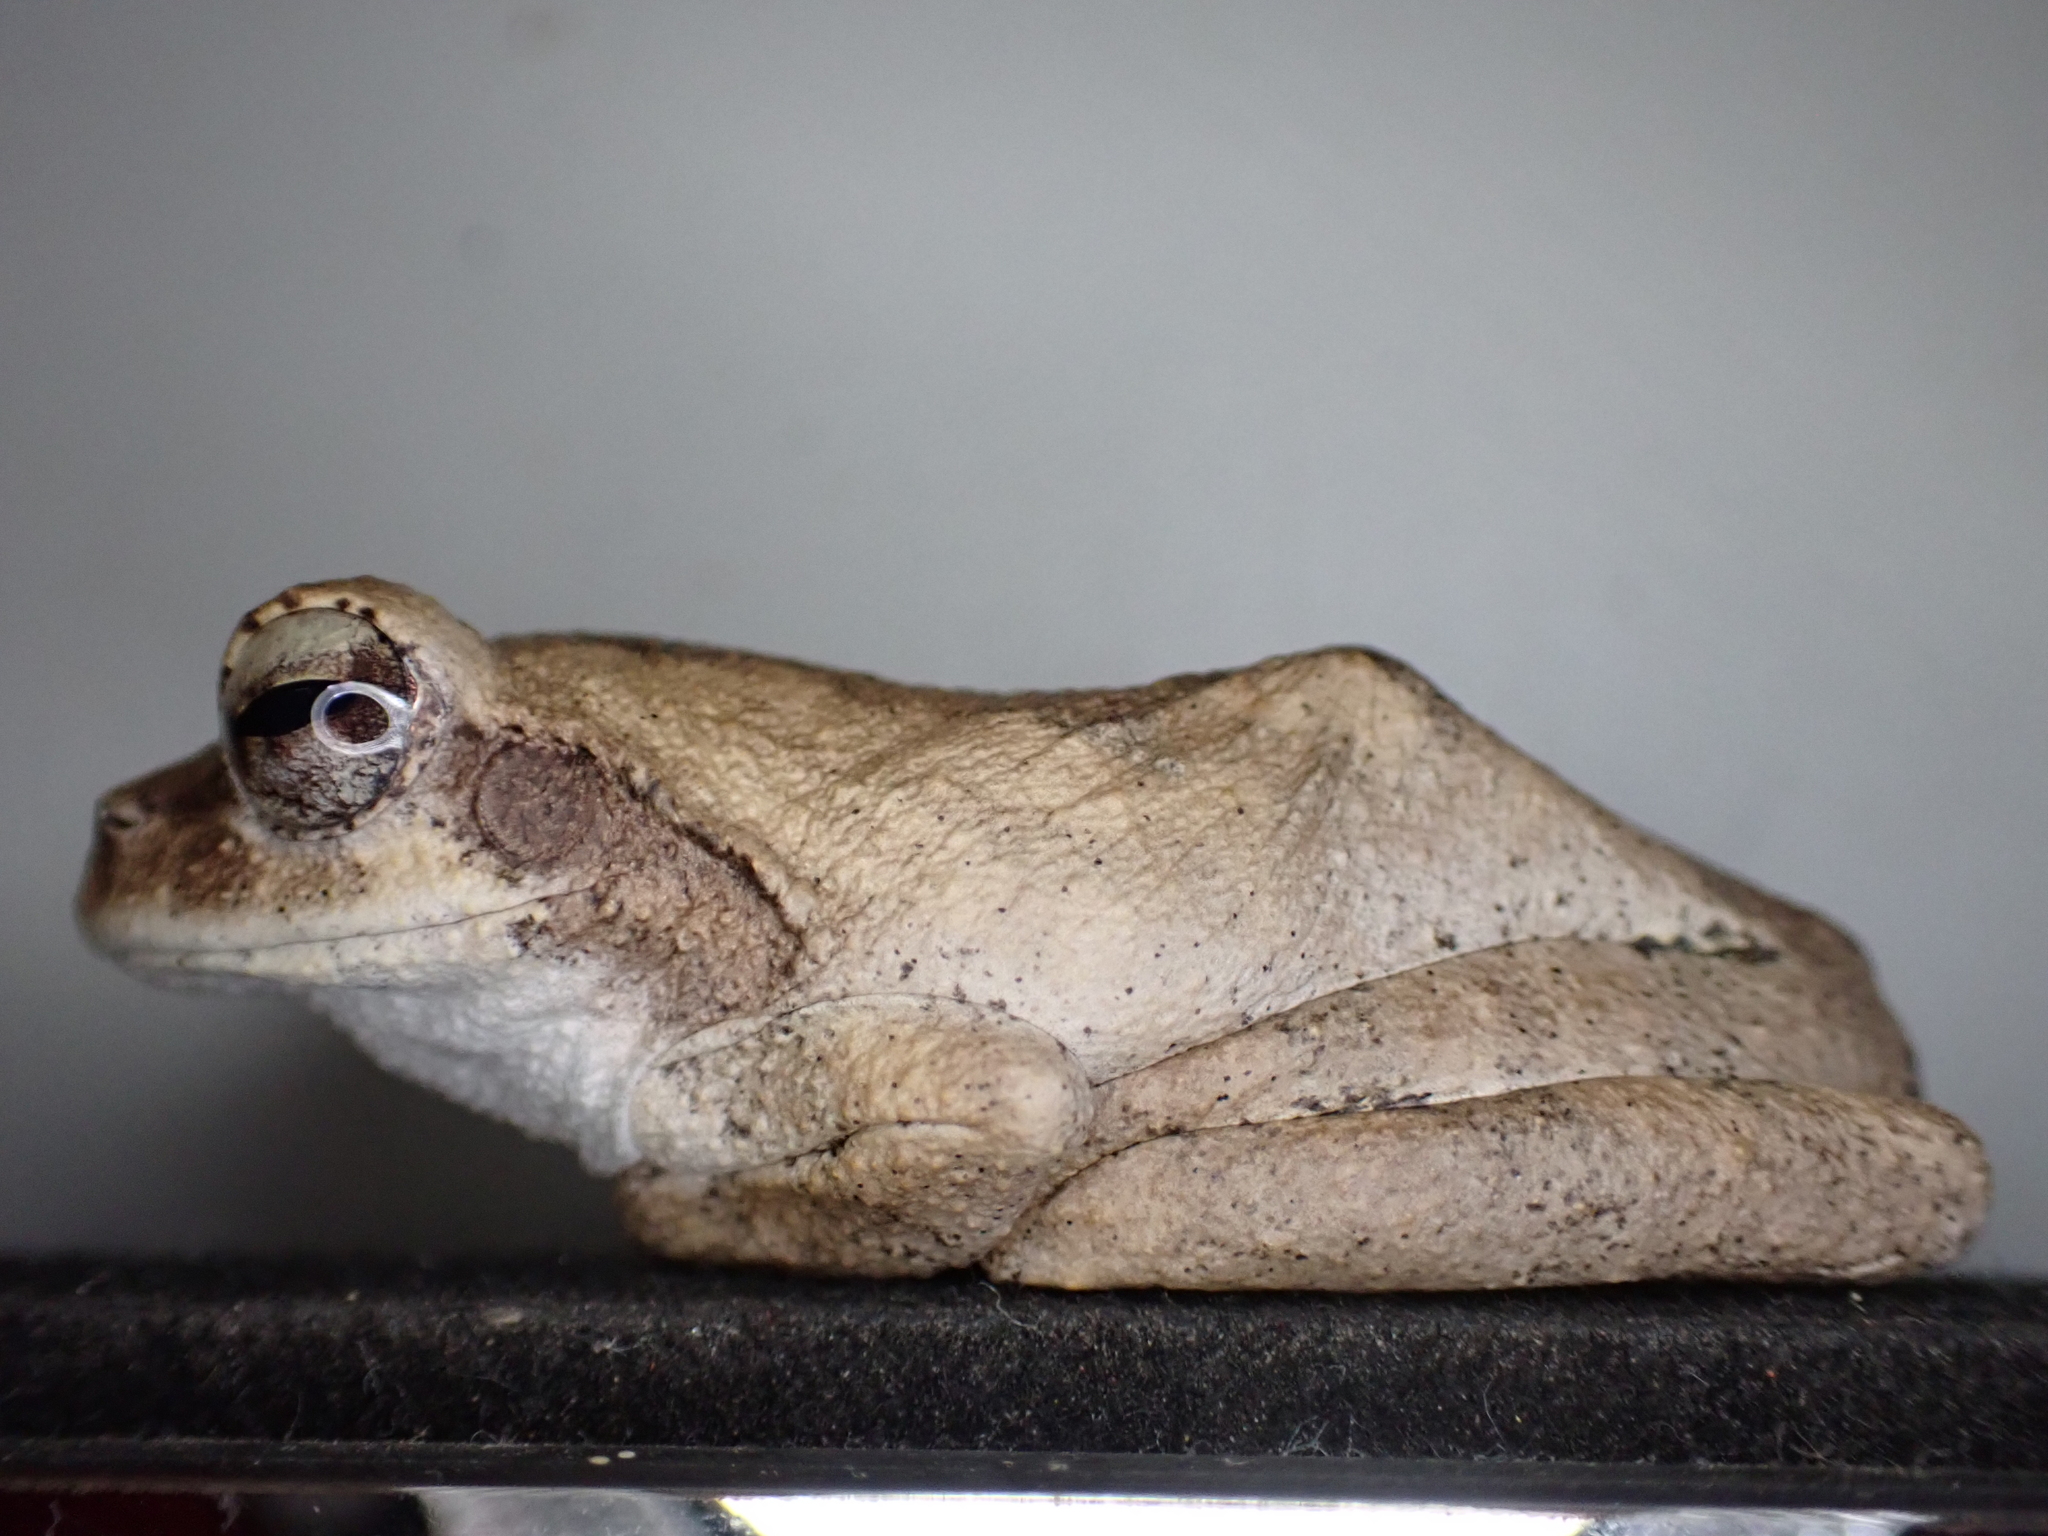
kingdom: Animalia
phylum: Chordata
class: Amphibia
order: Anura
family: Rhacophoridae
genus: Chiromantis
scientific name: Chiromantis xerampelina
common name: African gray treefrog
